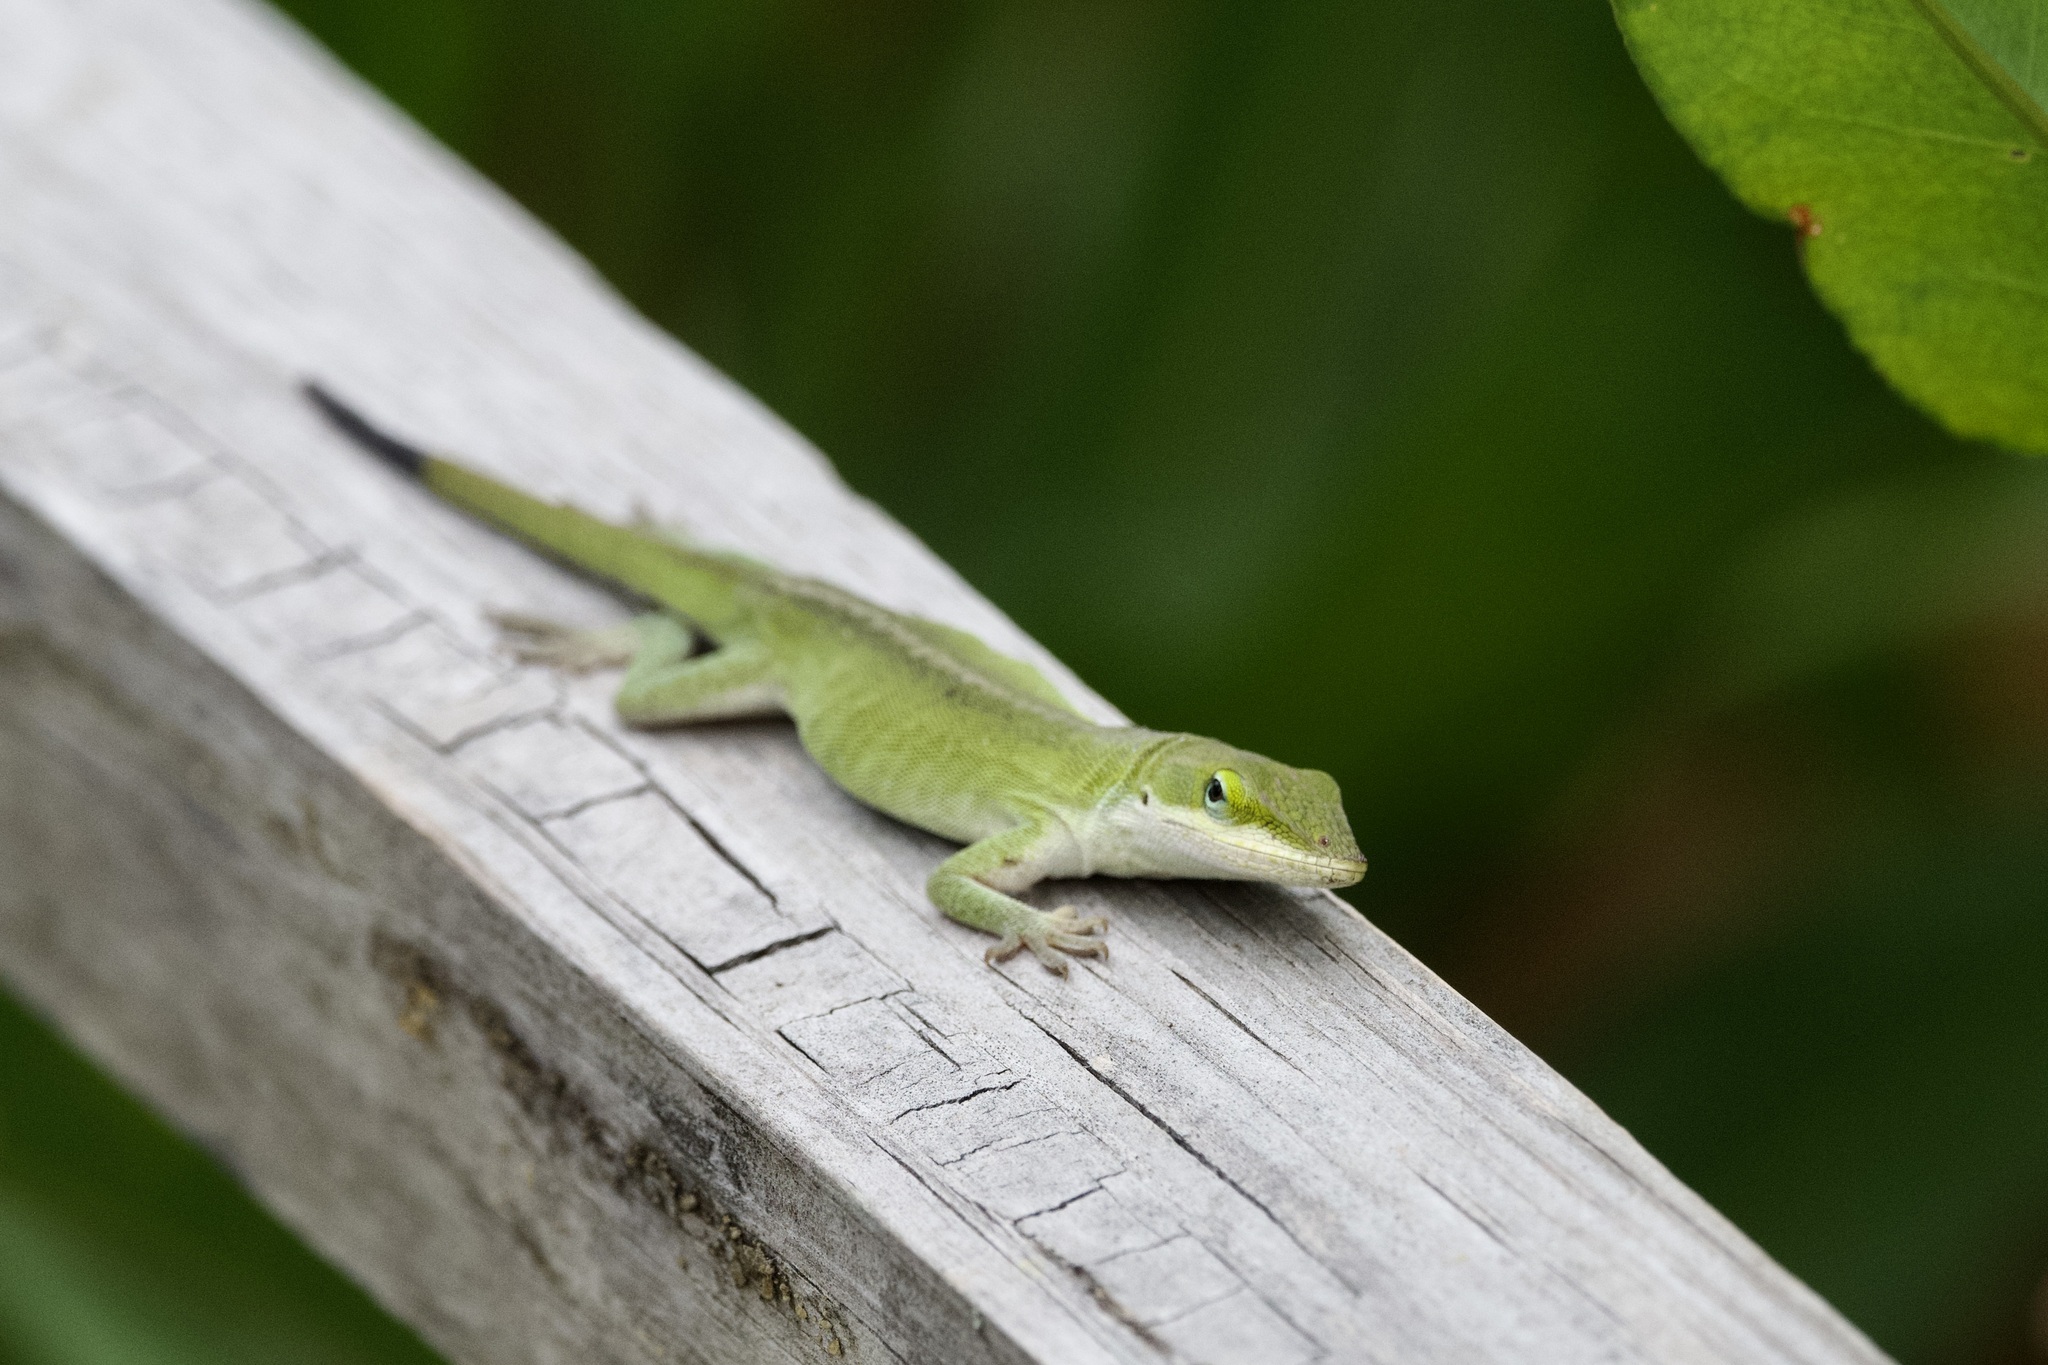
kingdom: Animalia
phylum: Chordata
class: Squamata
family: Dactyloidae
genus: Anolis
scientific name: Anolis carolinensis
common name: Green anole
